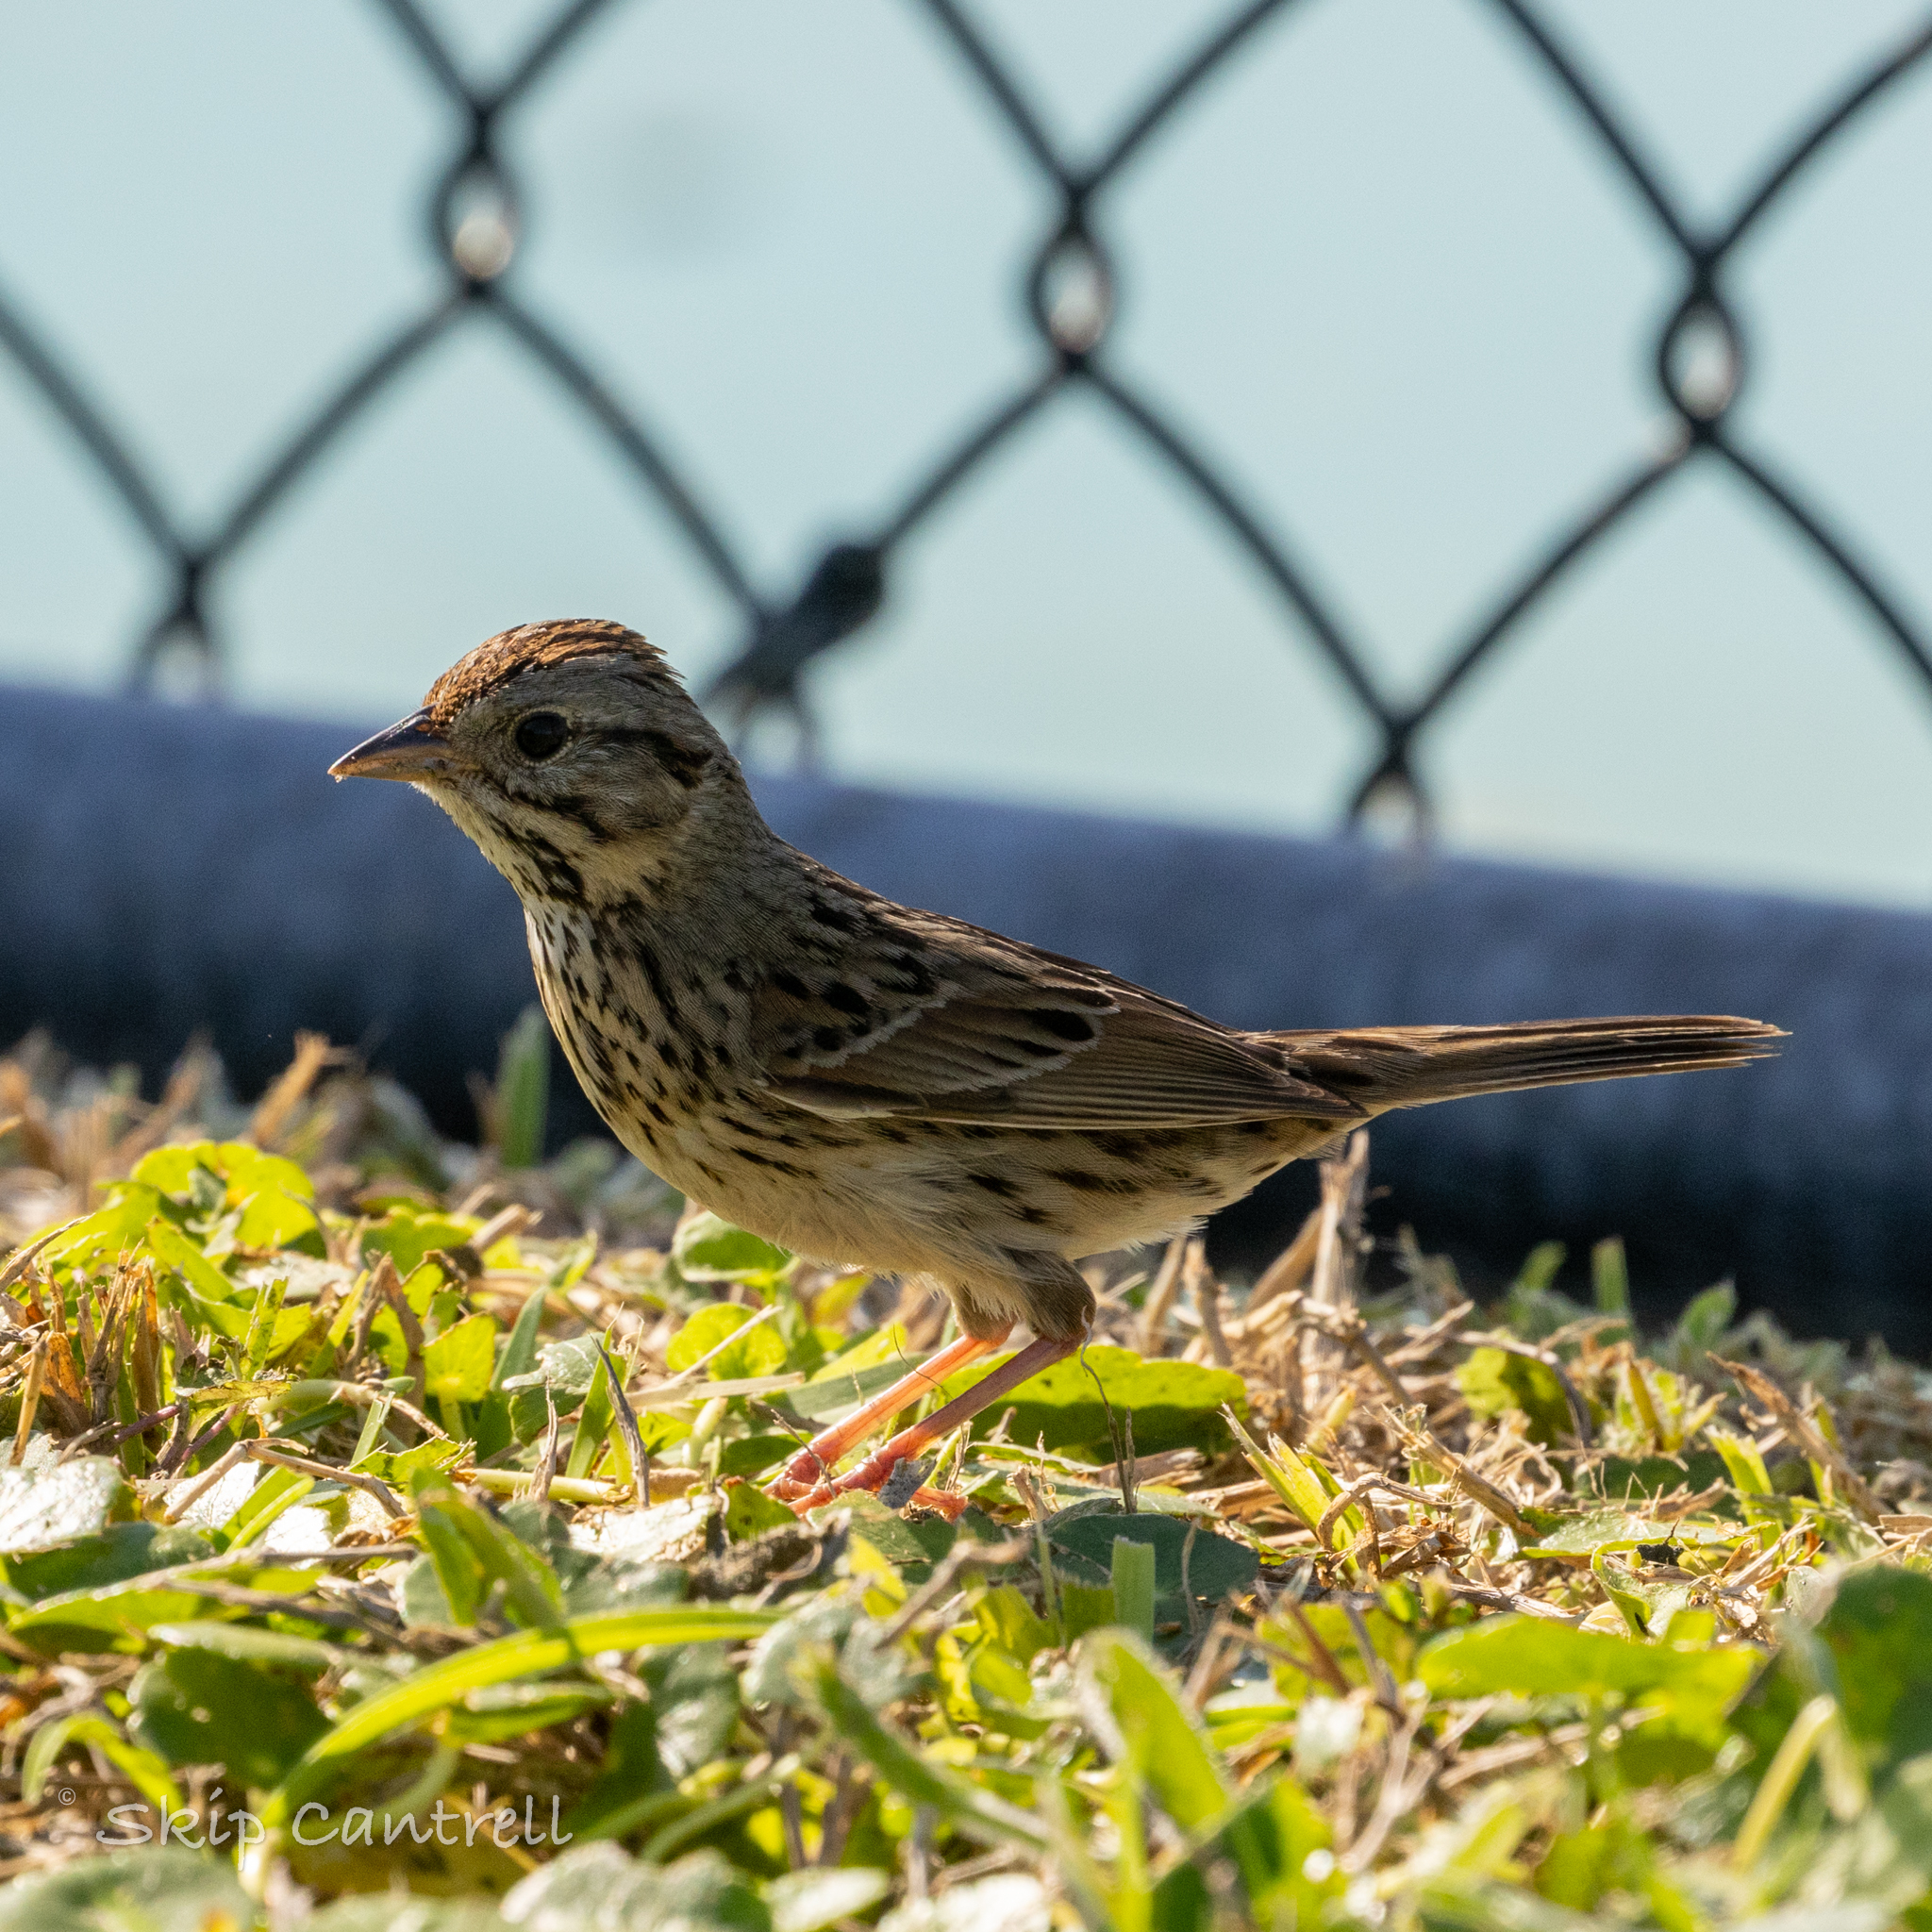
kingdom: Animalia
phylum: Chordata
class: Aves
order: Passeriformes
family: Passerellidae
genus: Melospiza
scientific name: Melospiza lincolnii
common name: Lincoln's sparrow
